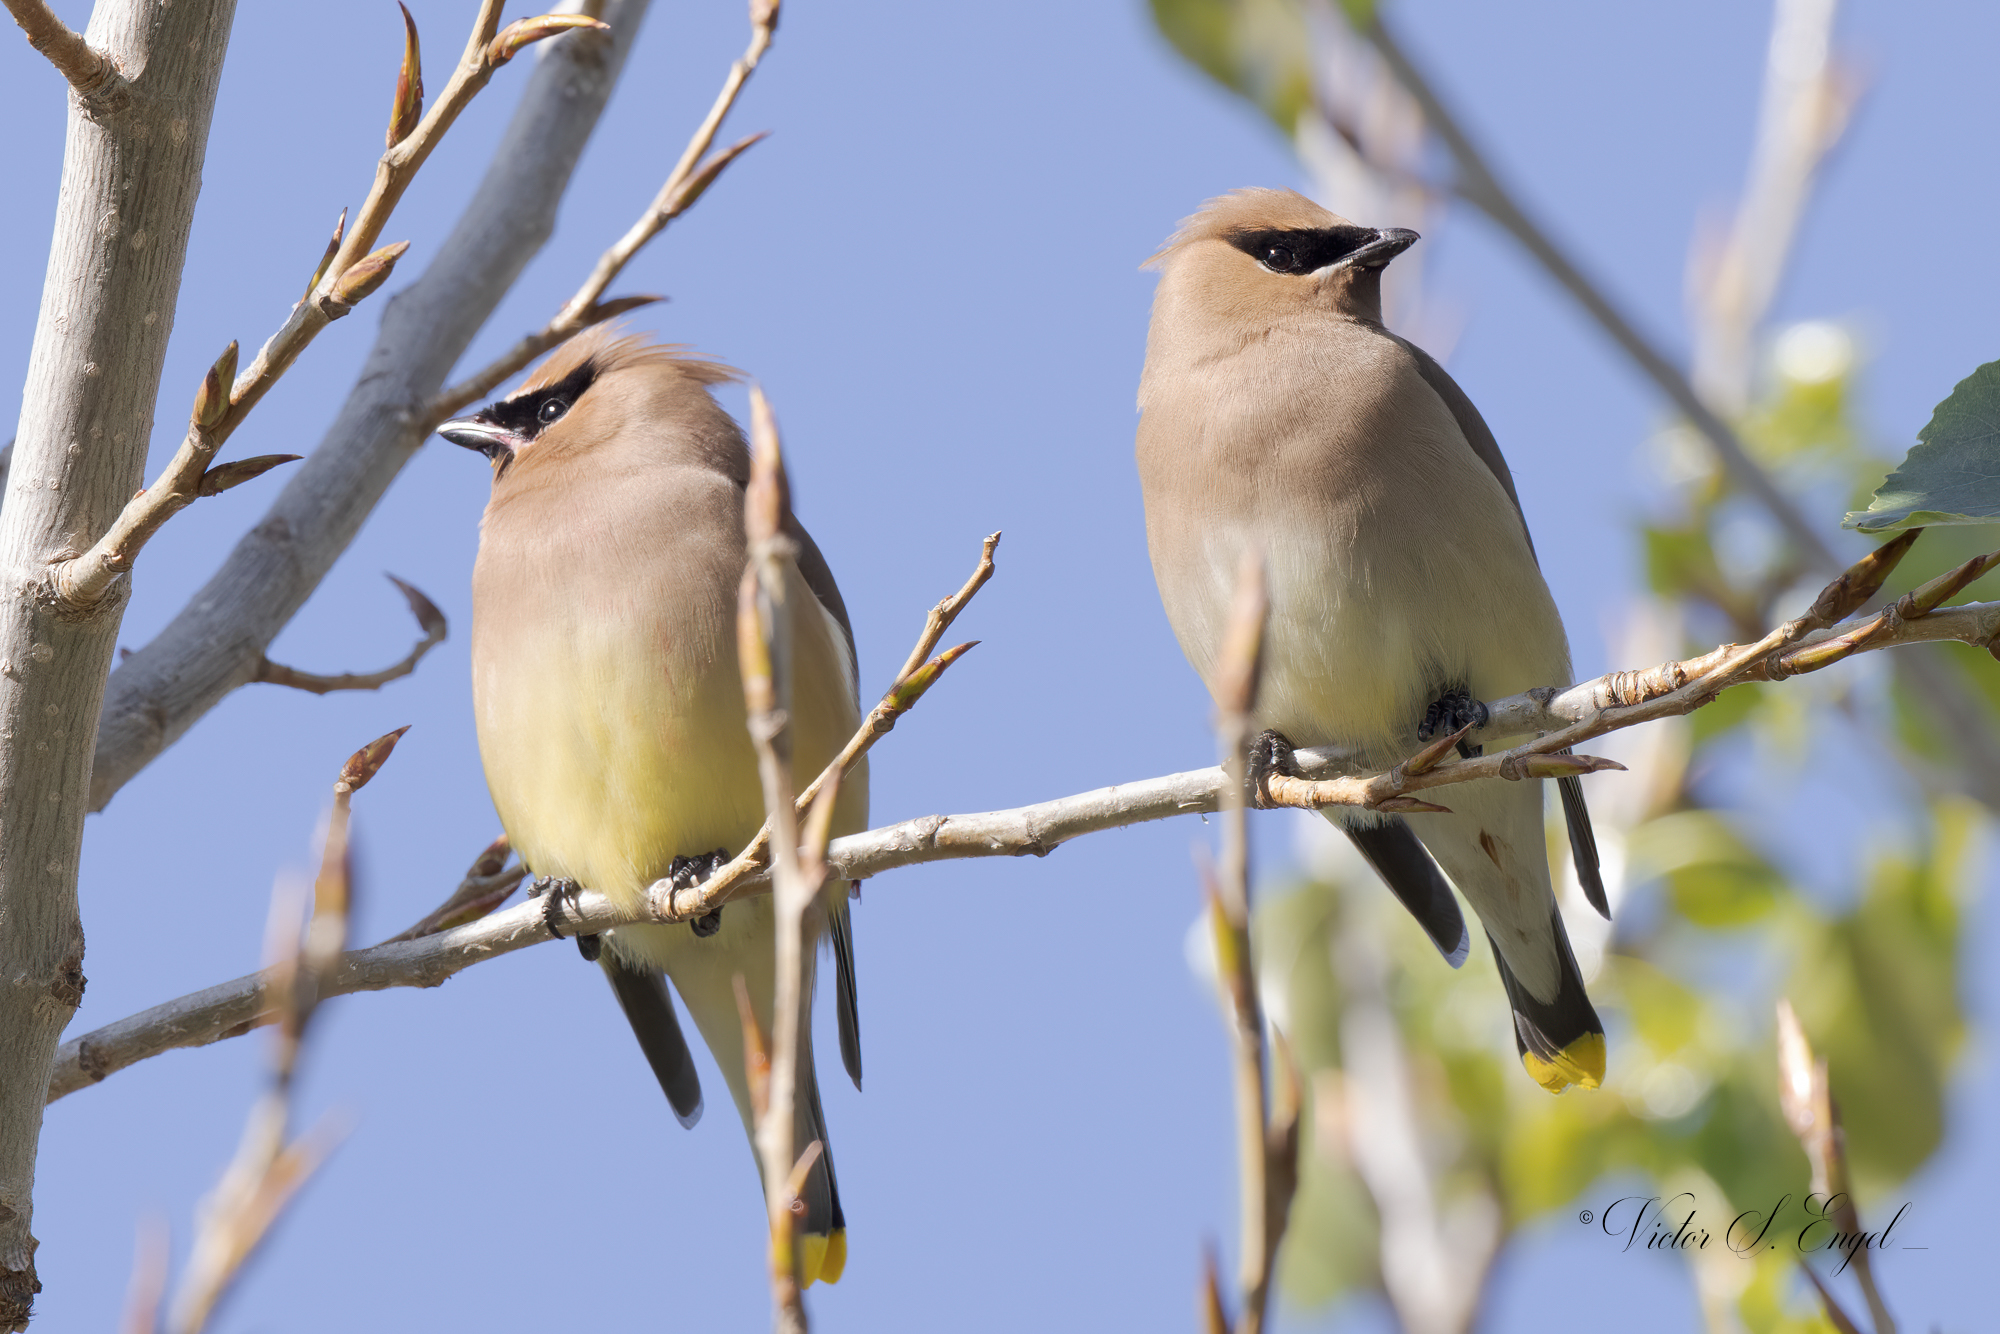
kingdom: Animalia
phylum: Chordata
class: Aves
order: Passeriformes
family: Bombycillidae
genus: Bombycilla
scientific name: Bombycilla cedrorum
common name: Cedar waxwing
